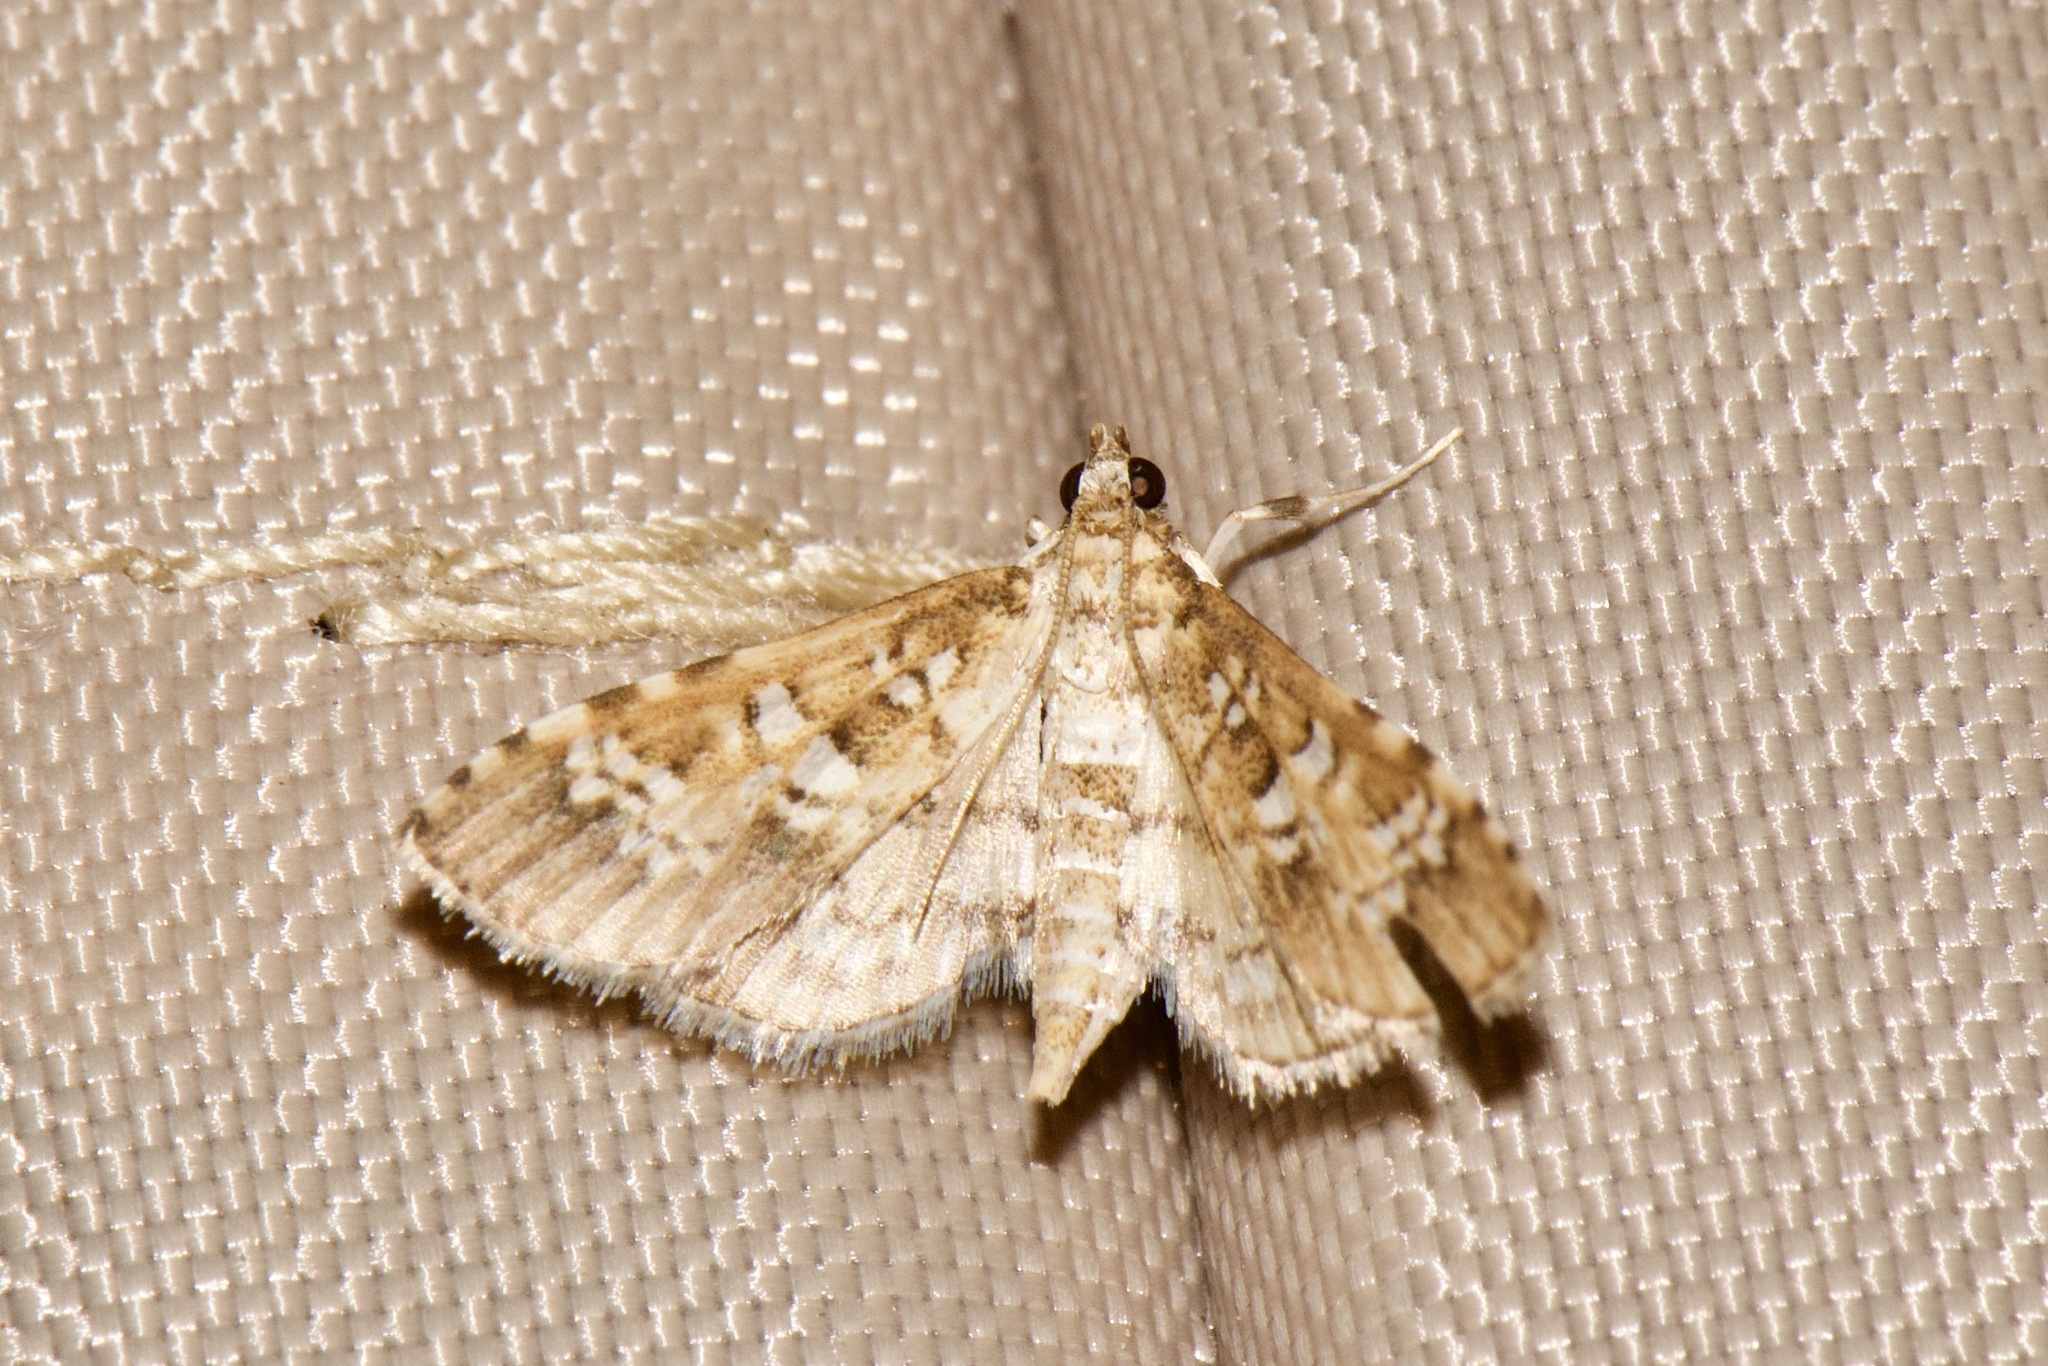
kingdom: Animalia
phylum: Arthropoda
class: Insecta
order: Lepidoptera
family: Crambidae
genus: Samea
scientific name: Samea multiplicalis
